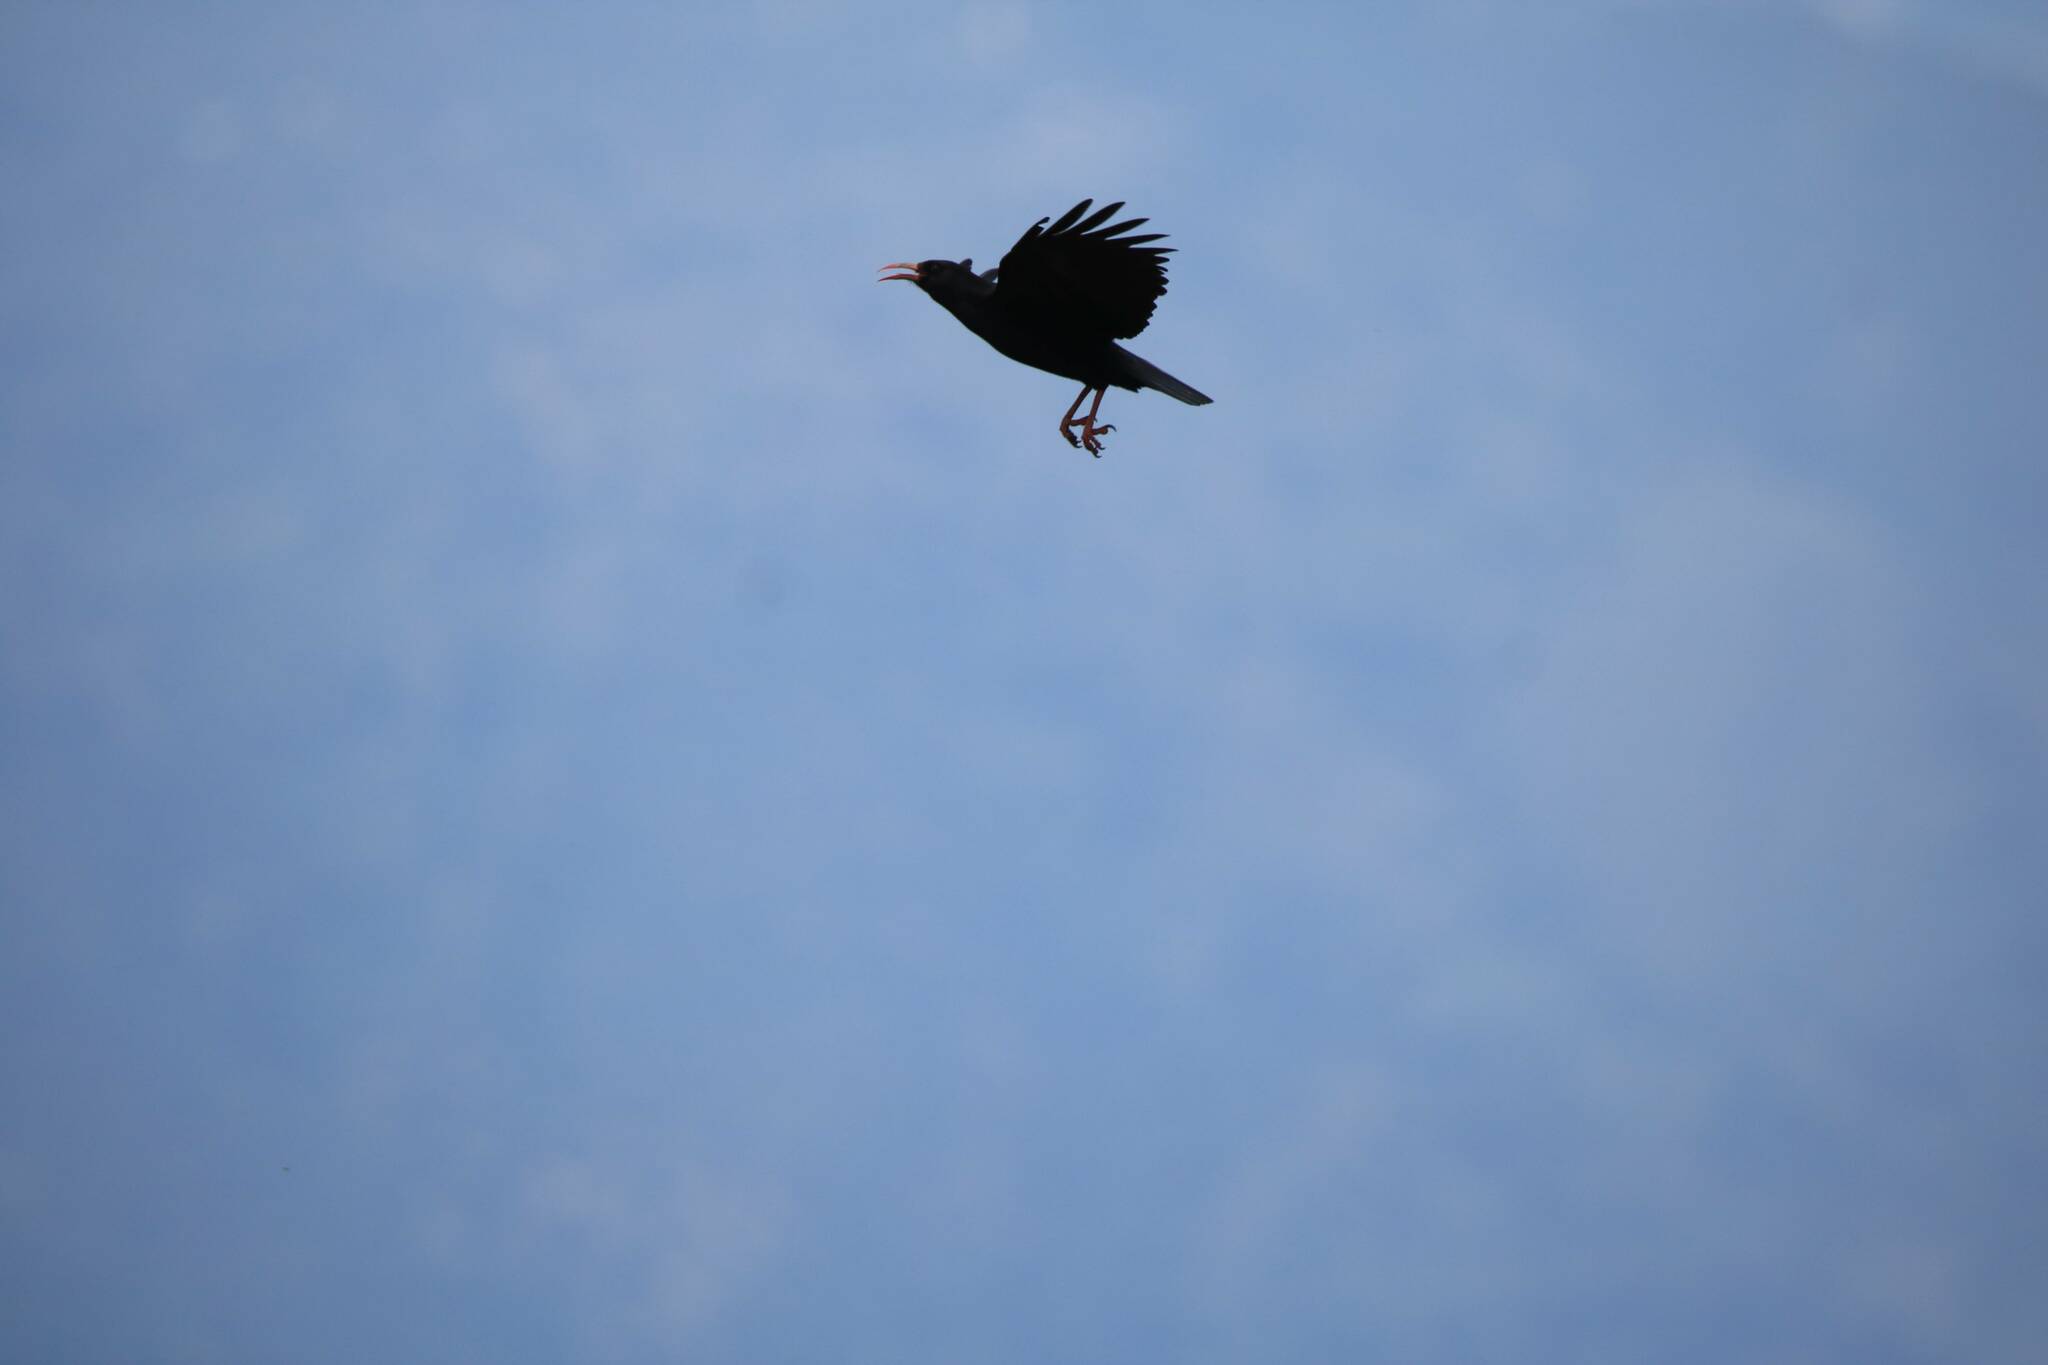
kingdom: Animalia
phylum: Chordata
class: Aves
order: Passeriformes
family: Corvidae
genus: Pyrrhocorax
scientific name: Pyrrhocorax pyrrhocorax
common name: Red-billed chough
